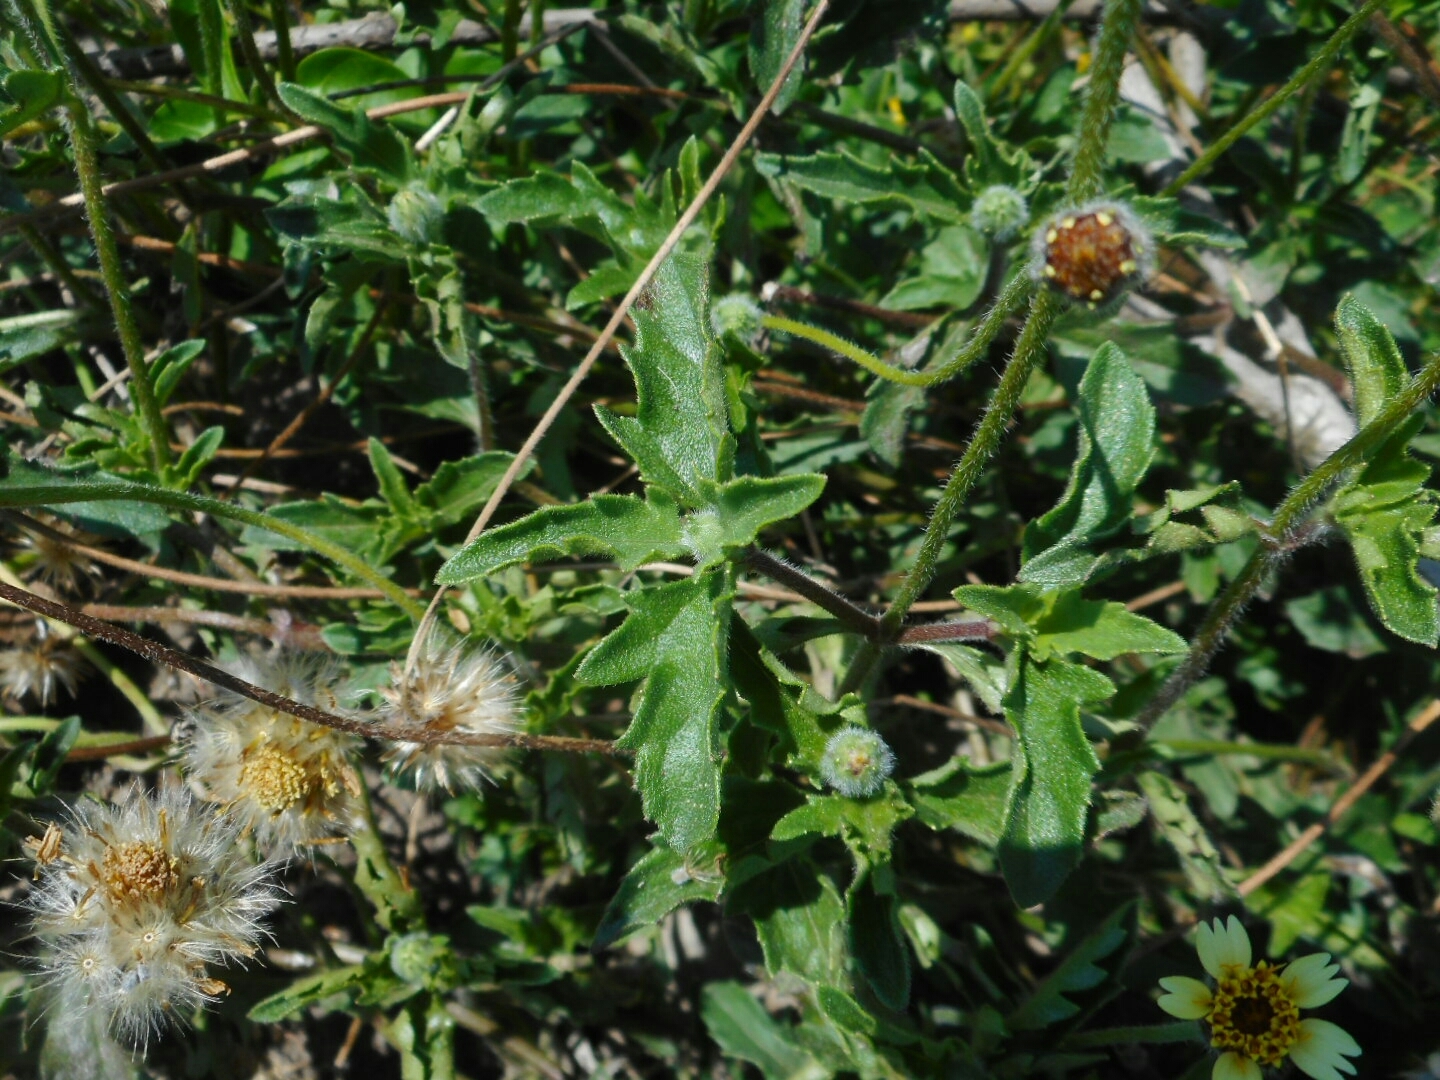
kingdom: Plantae
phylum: Tracheophyta
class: Magnoliopsida
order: Asterales
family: Asteraceae
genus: Tridax
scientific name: Tridax procumbens
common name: Coatbuttons
